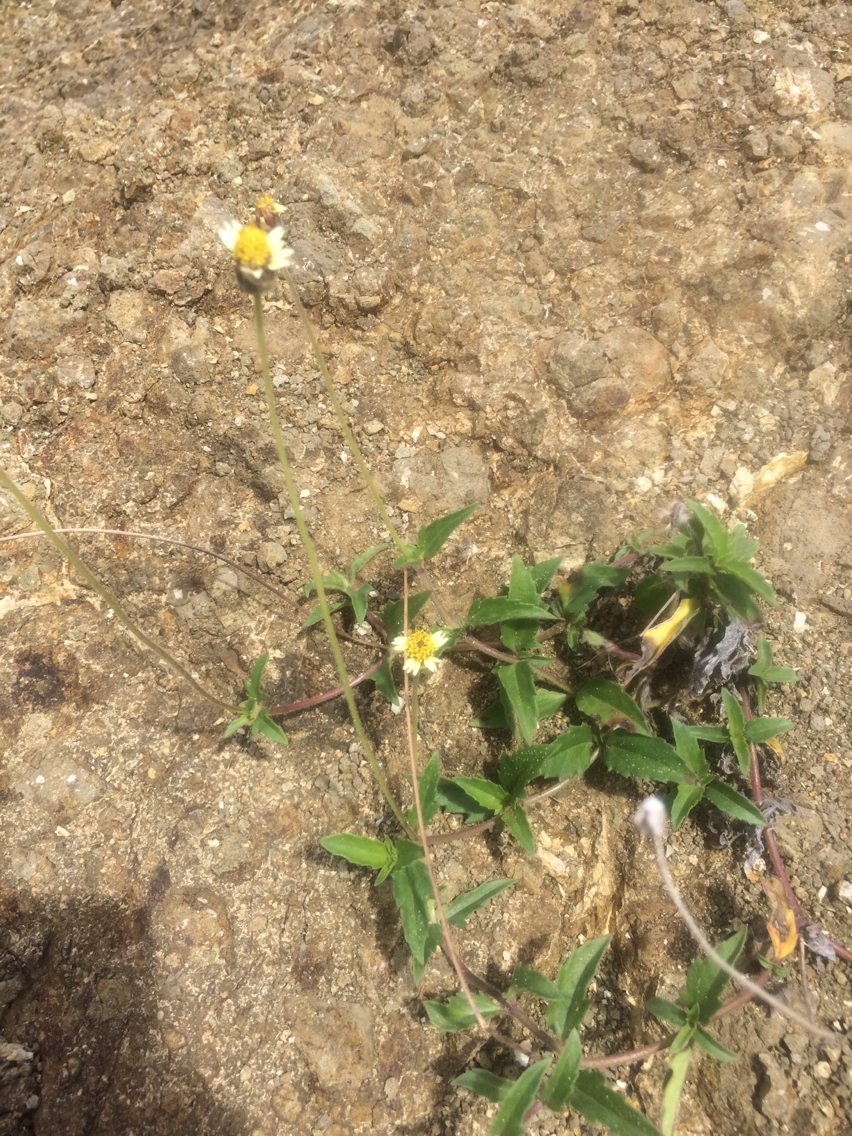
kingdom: Plantae
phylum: Tracheophyta
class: Magnoliopsida
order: Asterales
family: Asteraceae
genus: Tridax
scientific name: Tridax procumbens
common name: Coatbuttons
